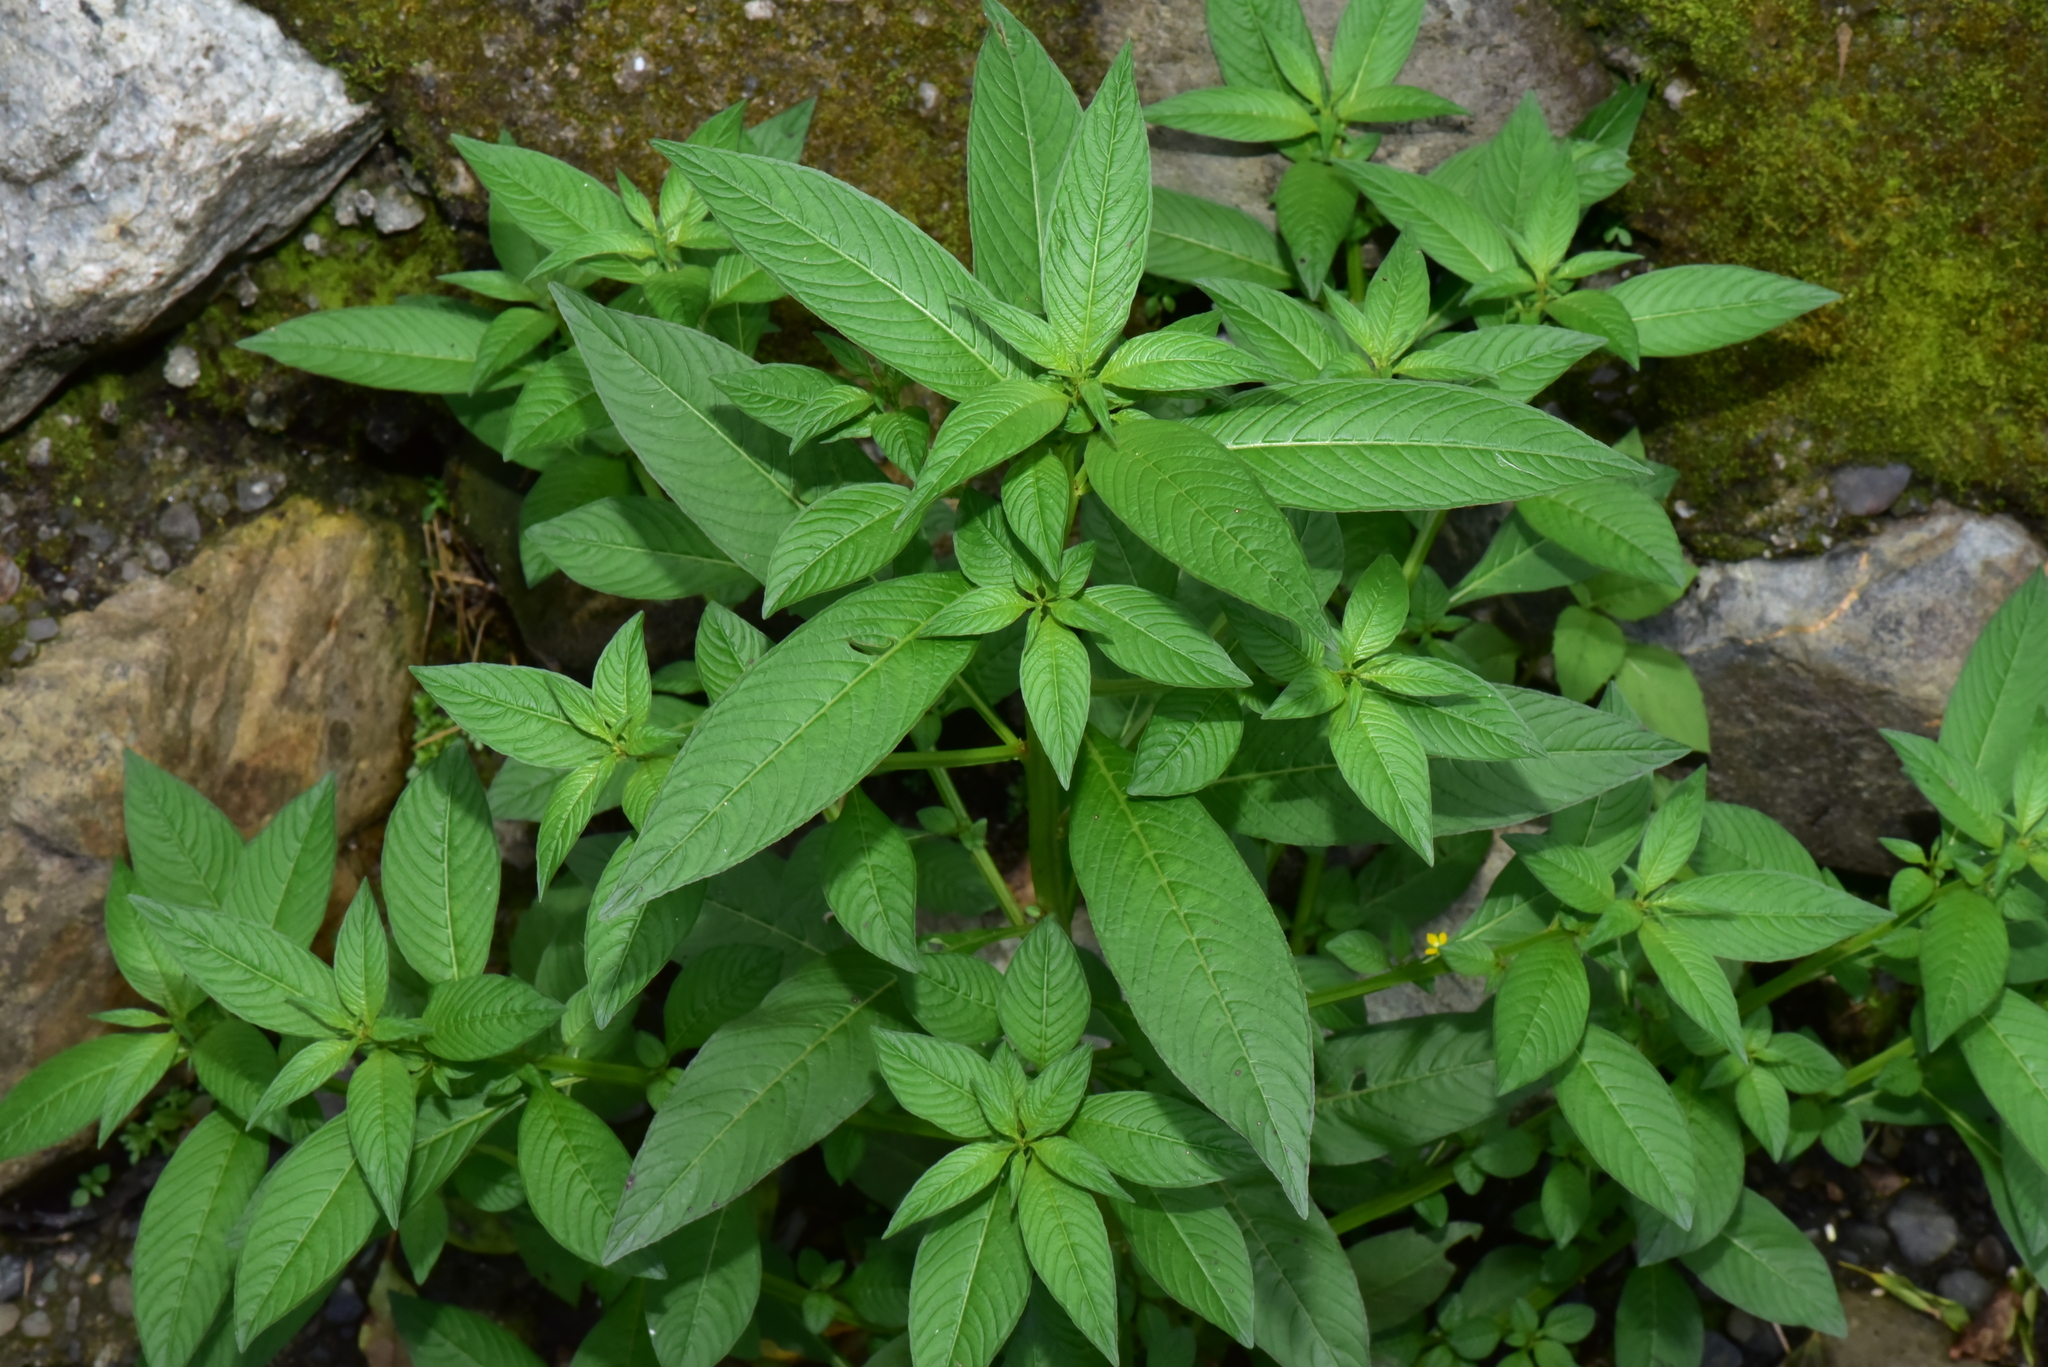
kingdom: Plantae
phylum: Tracheophyta
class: Magnoliopsida
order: Myrtales
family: Onagraceae
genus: Ludwigia
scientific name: Ludwigia erecta
